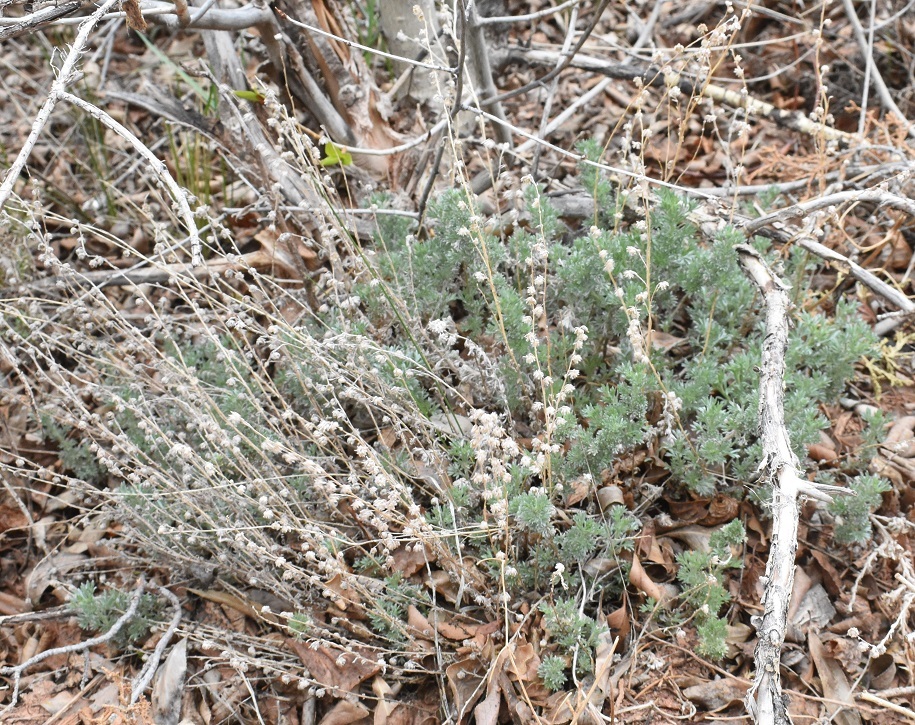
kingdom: Plantae
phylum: Tracheophyta
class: Magnoliopsida
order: Asterales
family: Asteraceae
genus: Artemisia
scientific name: Artemisia frigida
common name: Prairie sagewort
